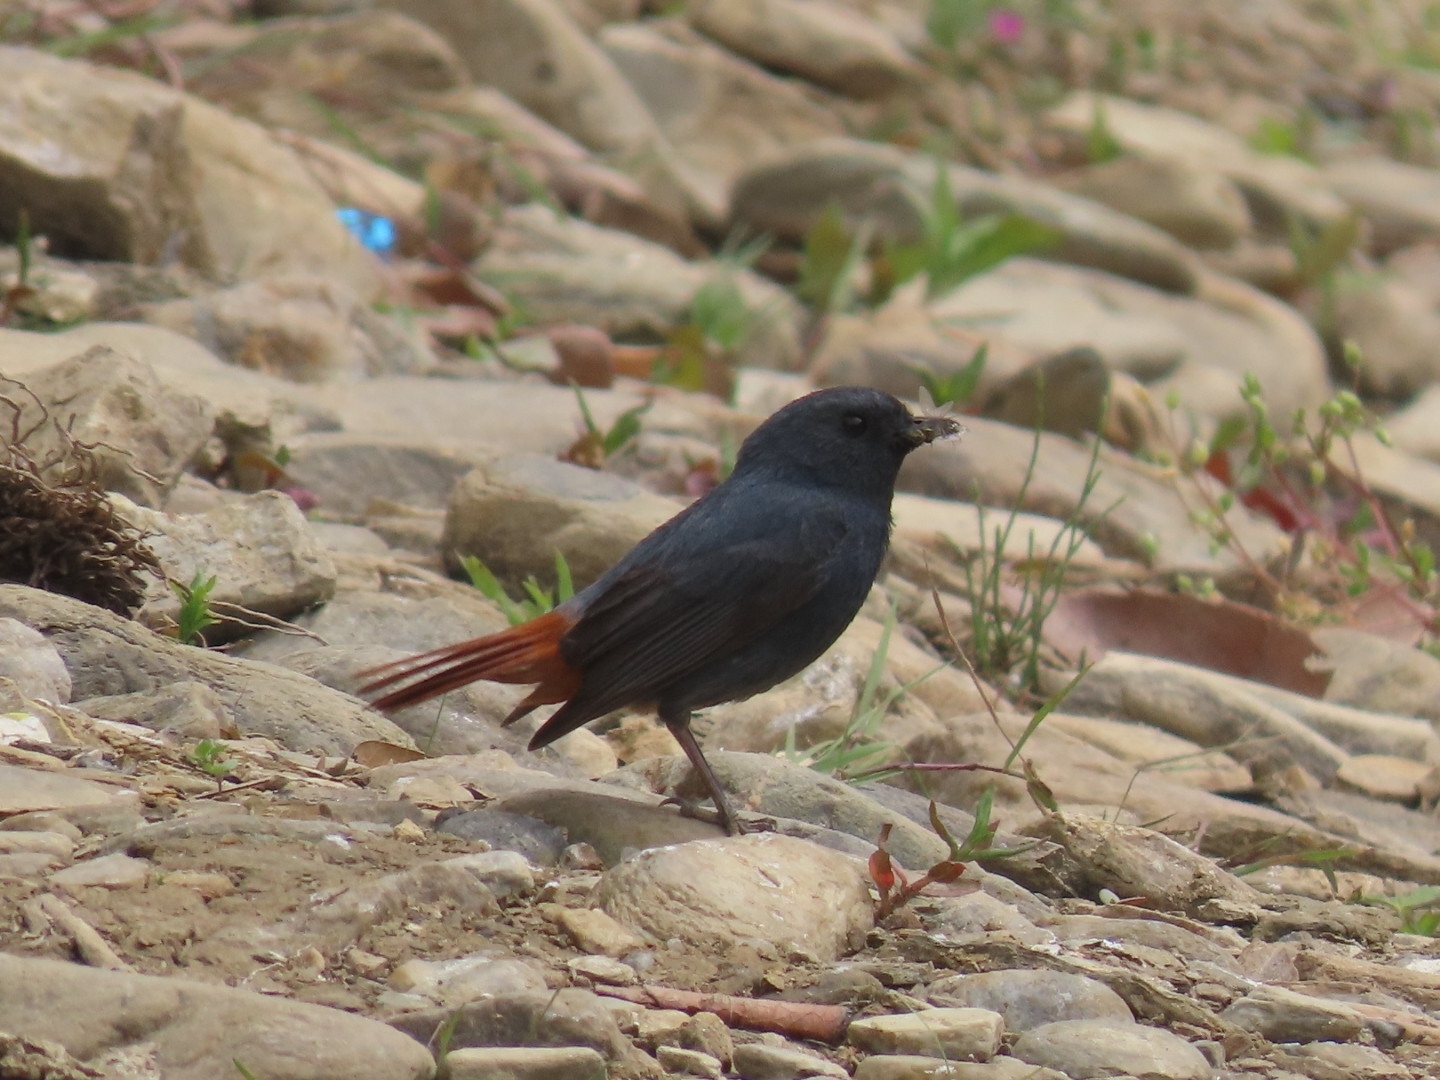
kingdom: Animalia
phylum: Chordata
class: Aves
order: Passeriformes
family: Muscicapidae
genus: Phoenicurus
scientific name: Phoenicurus fuliginosus
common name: Plumbeous water redstart
